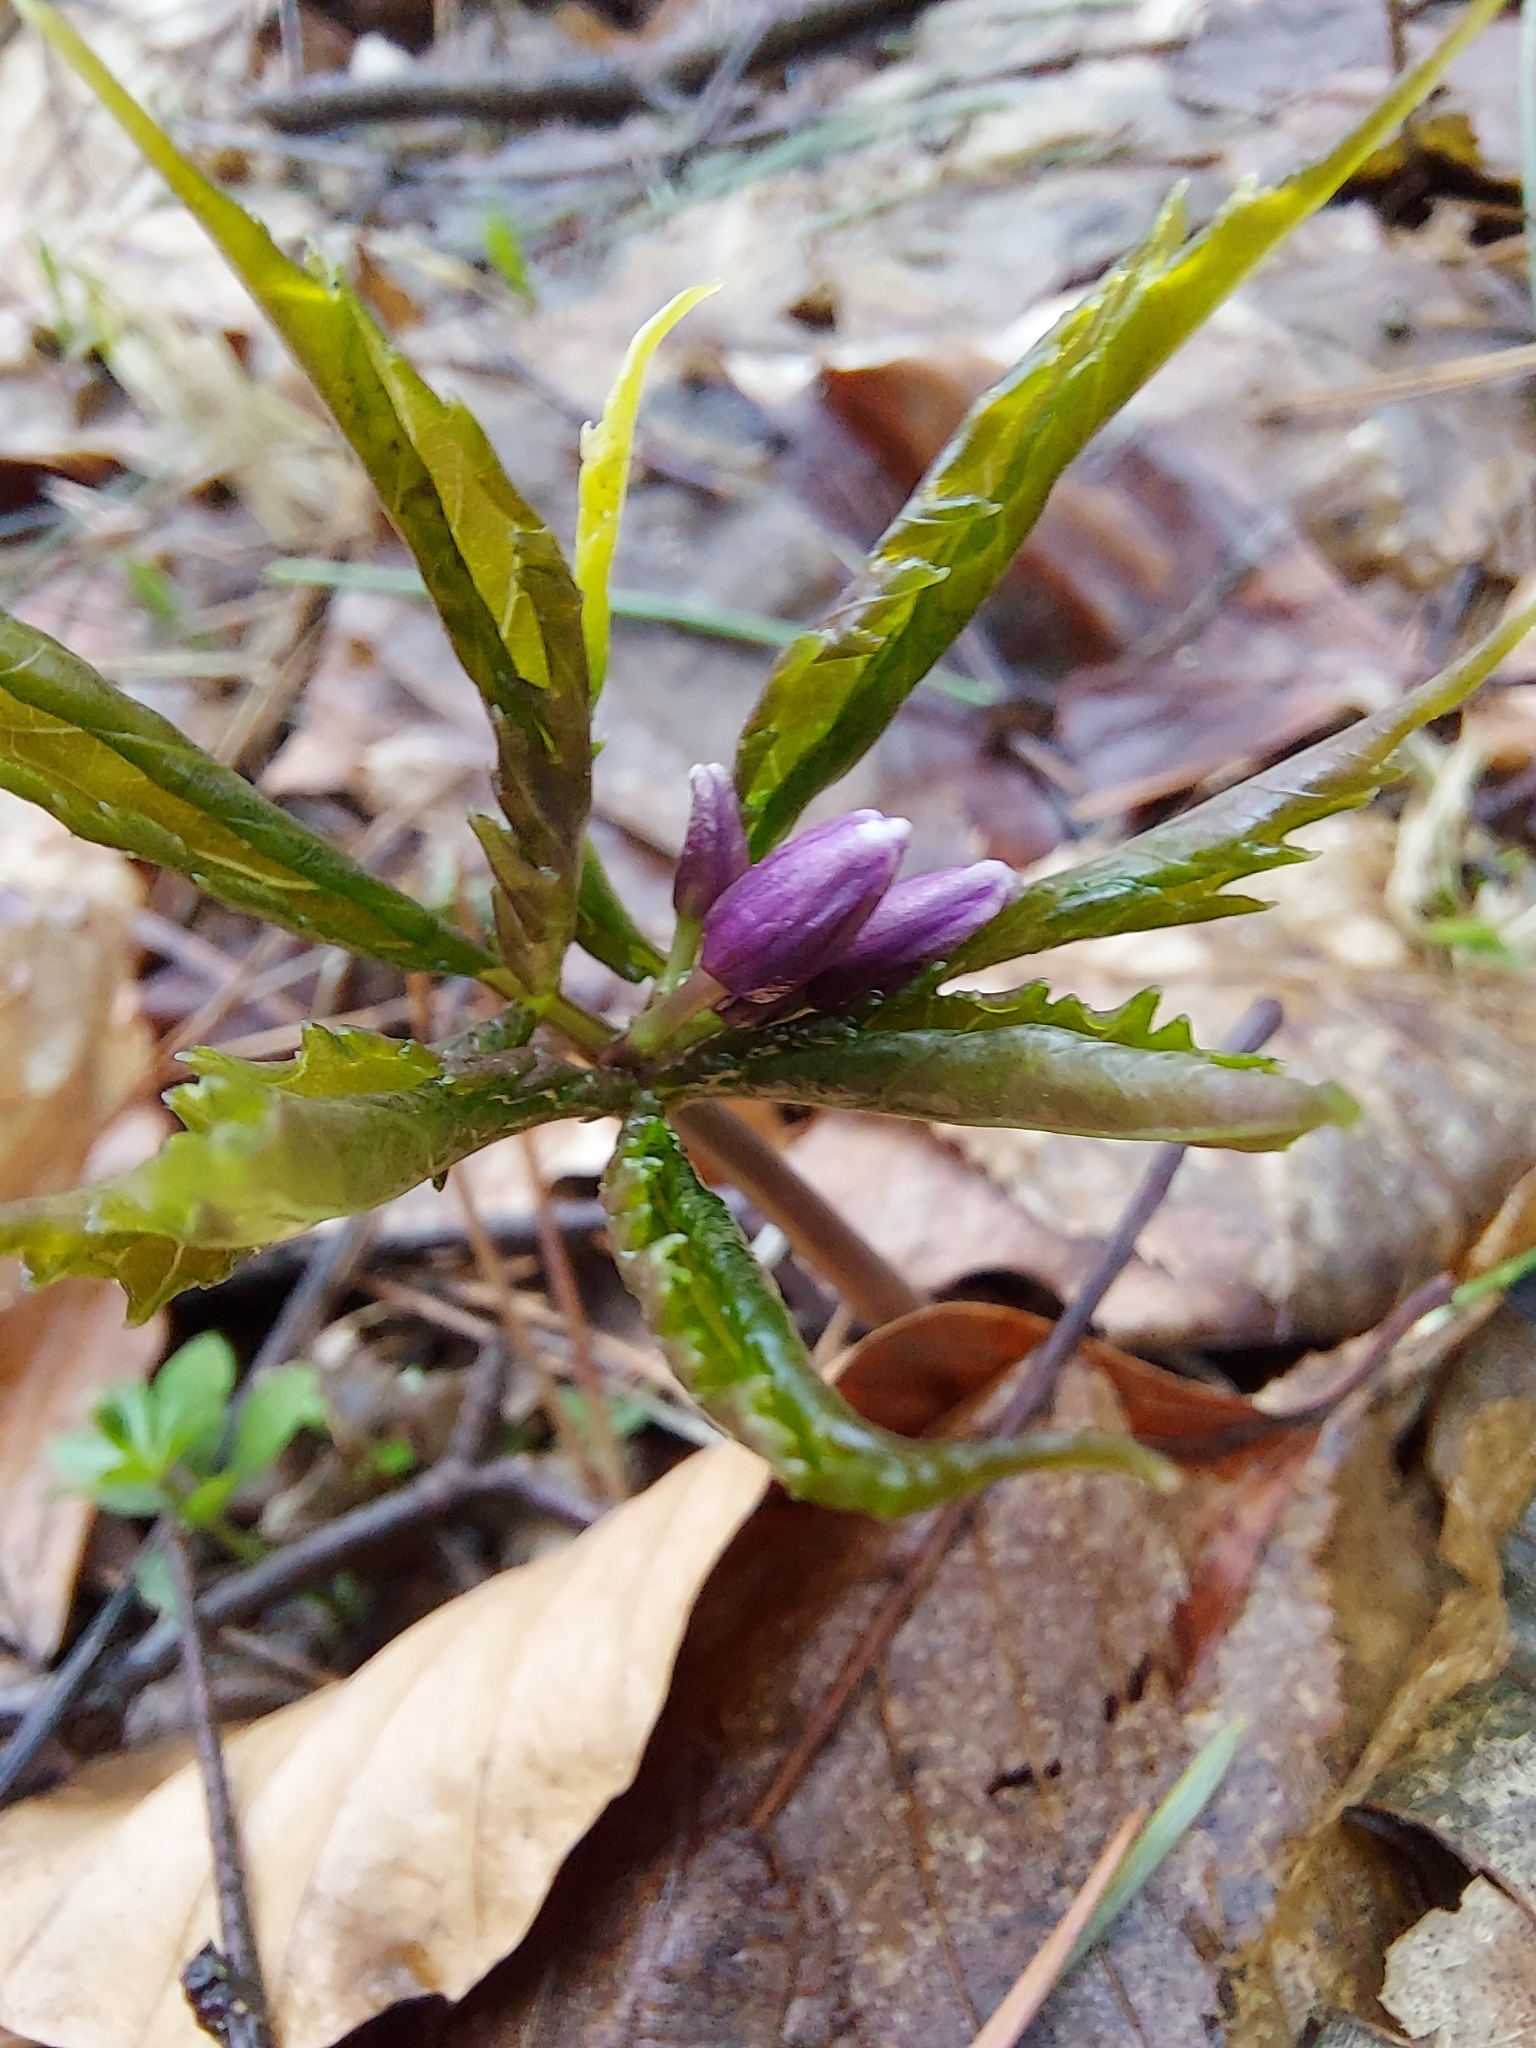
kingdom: Plantae
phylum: Tracheophyta
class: Magnoliopsida
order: Brassicales
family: Brassicaceae
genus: Cardamine
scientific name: Cardamine glanduligera
